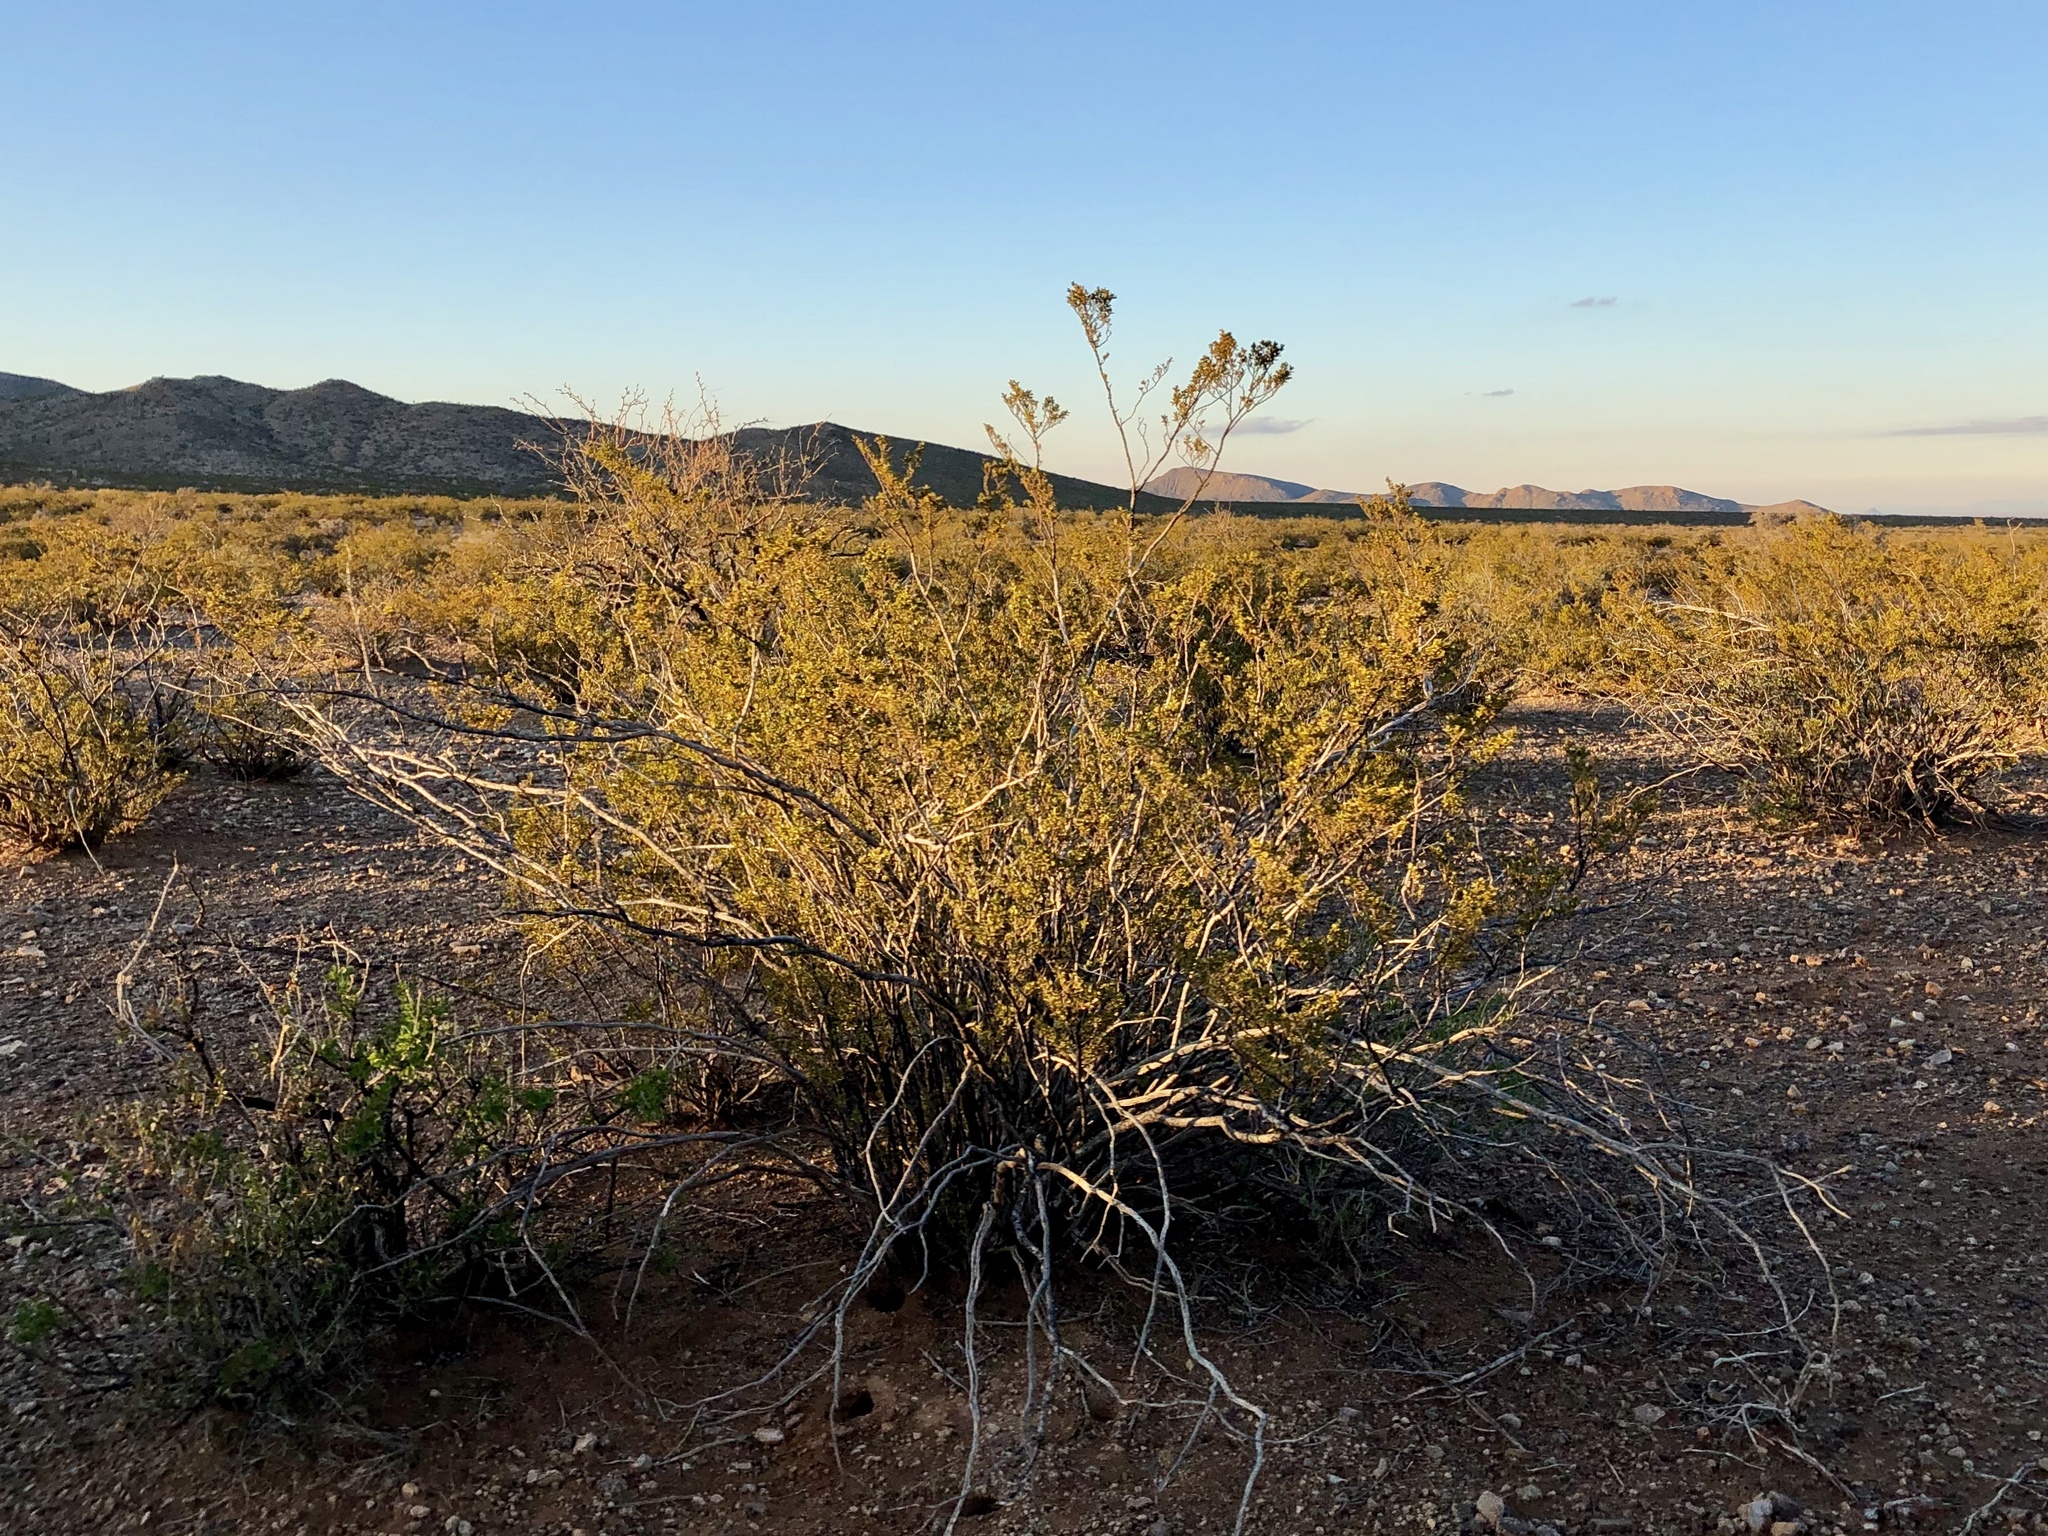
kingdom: Plantae
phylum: Tracheophyta
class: Magnoliopsida
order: Zygophyllales
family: Zygophyllaceae
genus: Larrea
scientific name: Larrea tridentata
